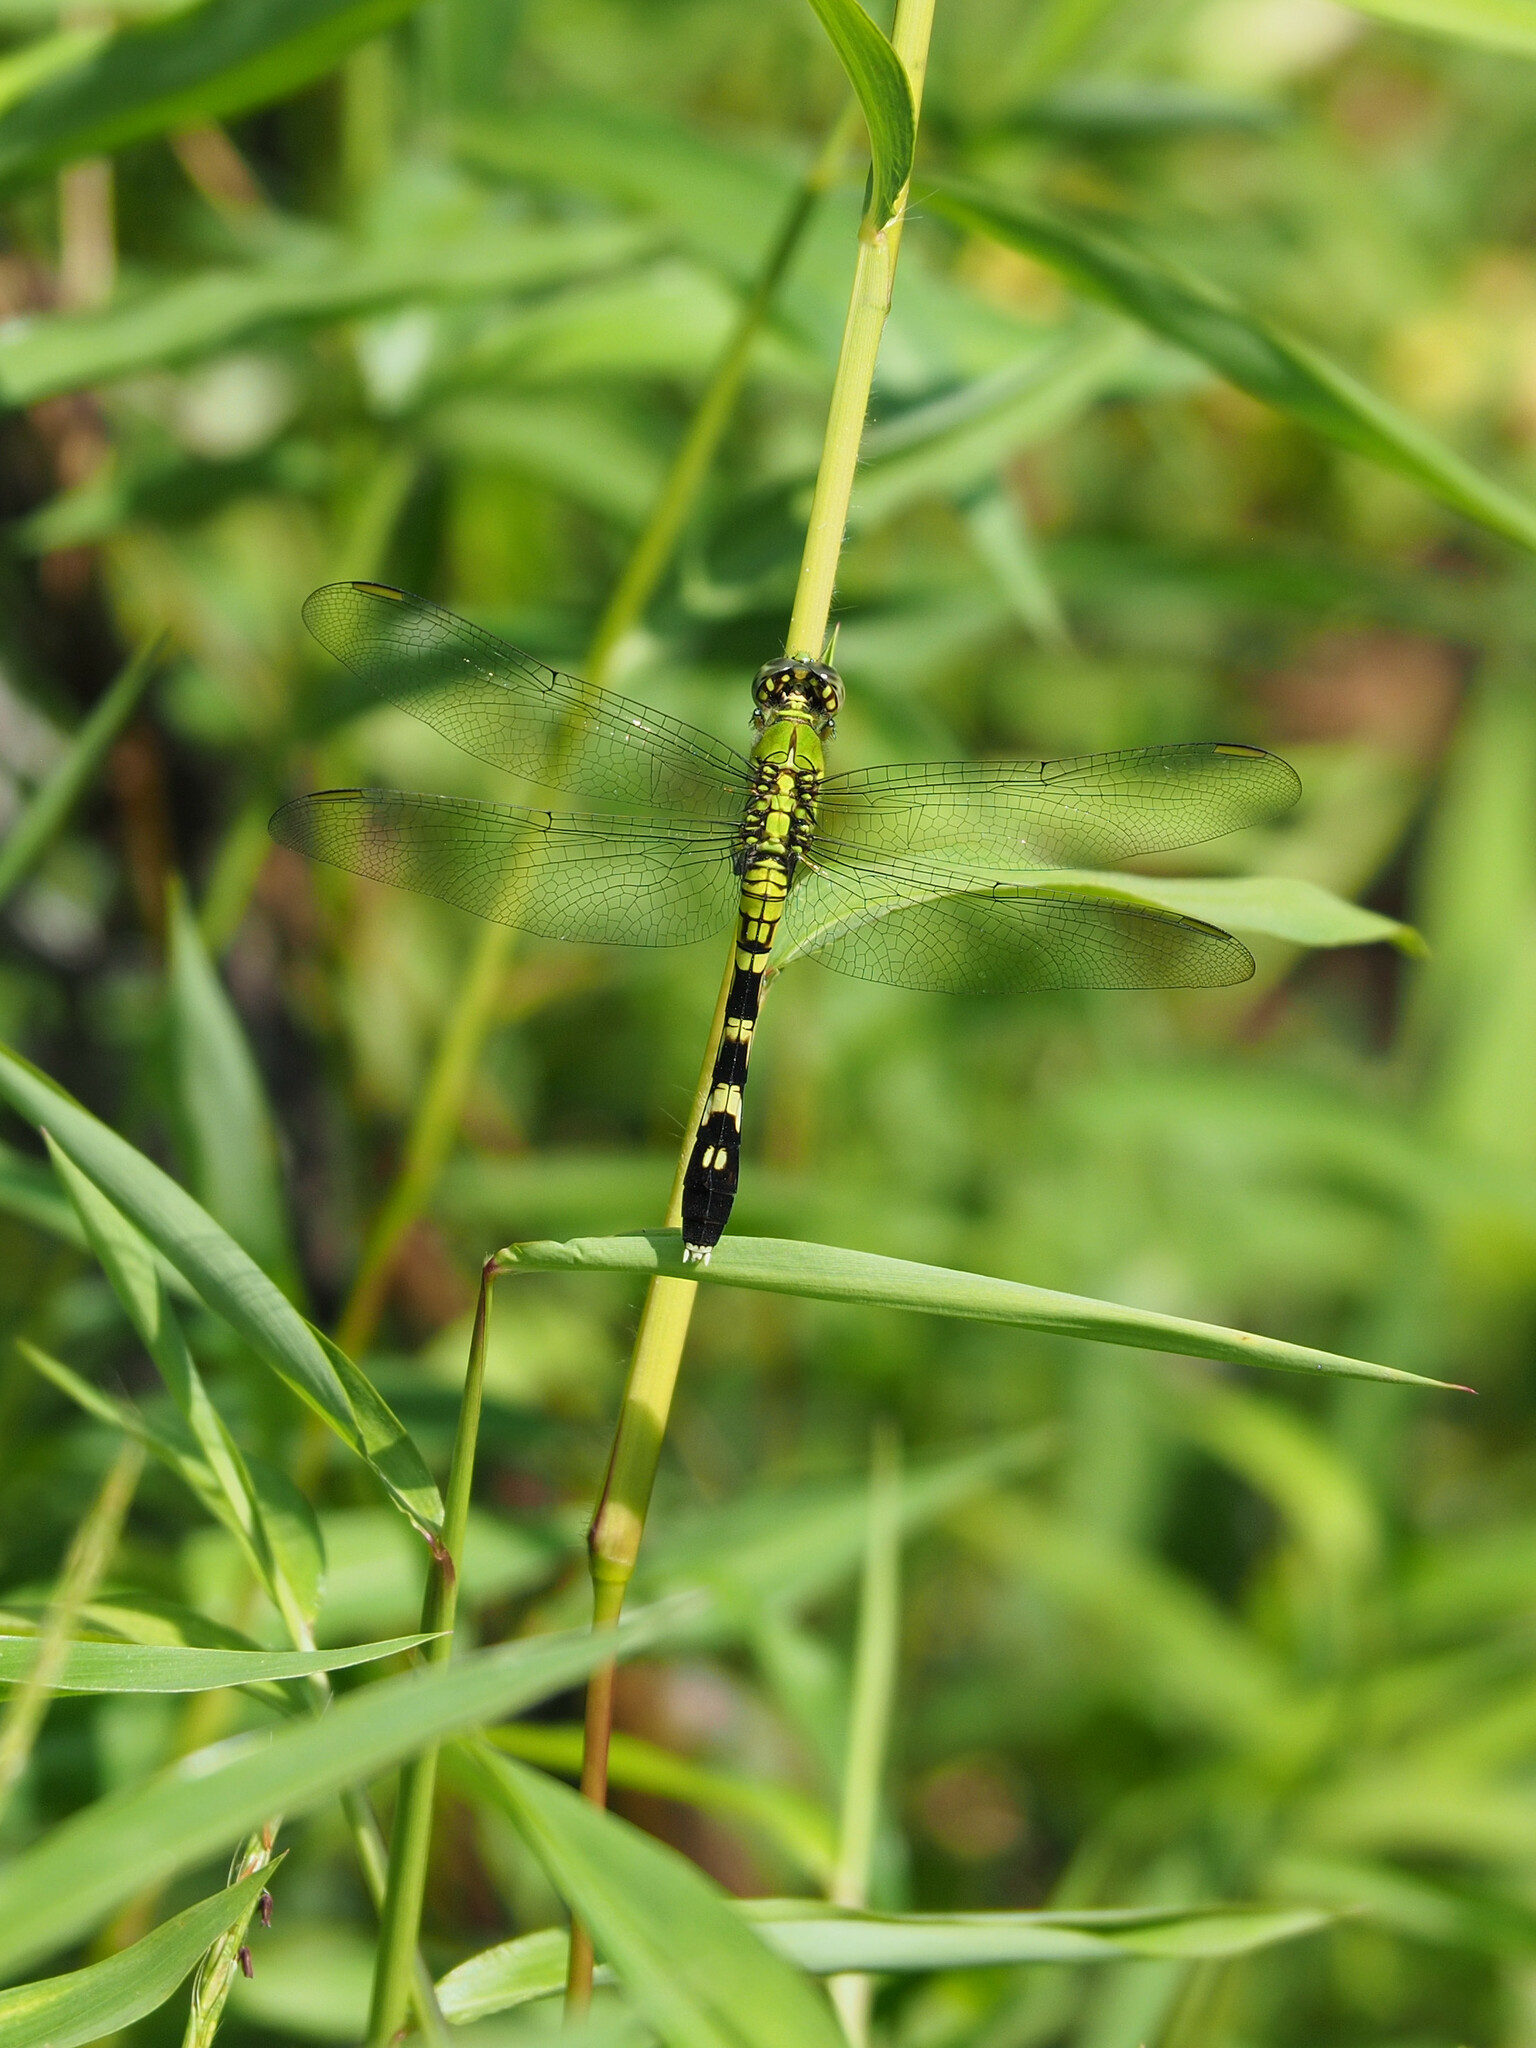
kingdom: Animalia
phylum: Arthropoda
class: Insecta
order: Odonata
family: Libellulidae
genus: Erythemis
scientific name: Erythemis simplicicollis
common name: Eastern pondhawk
